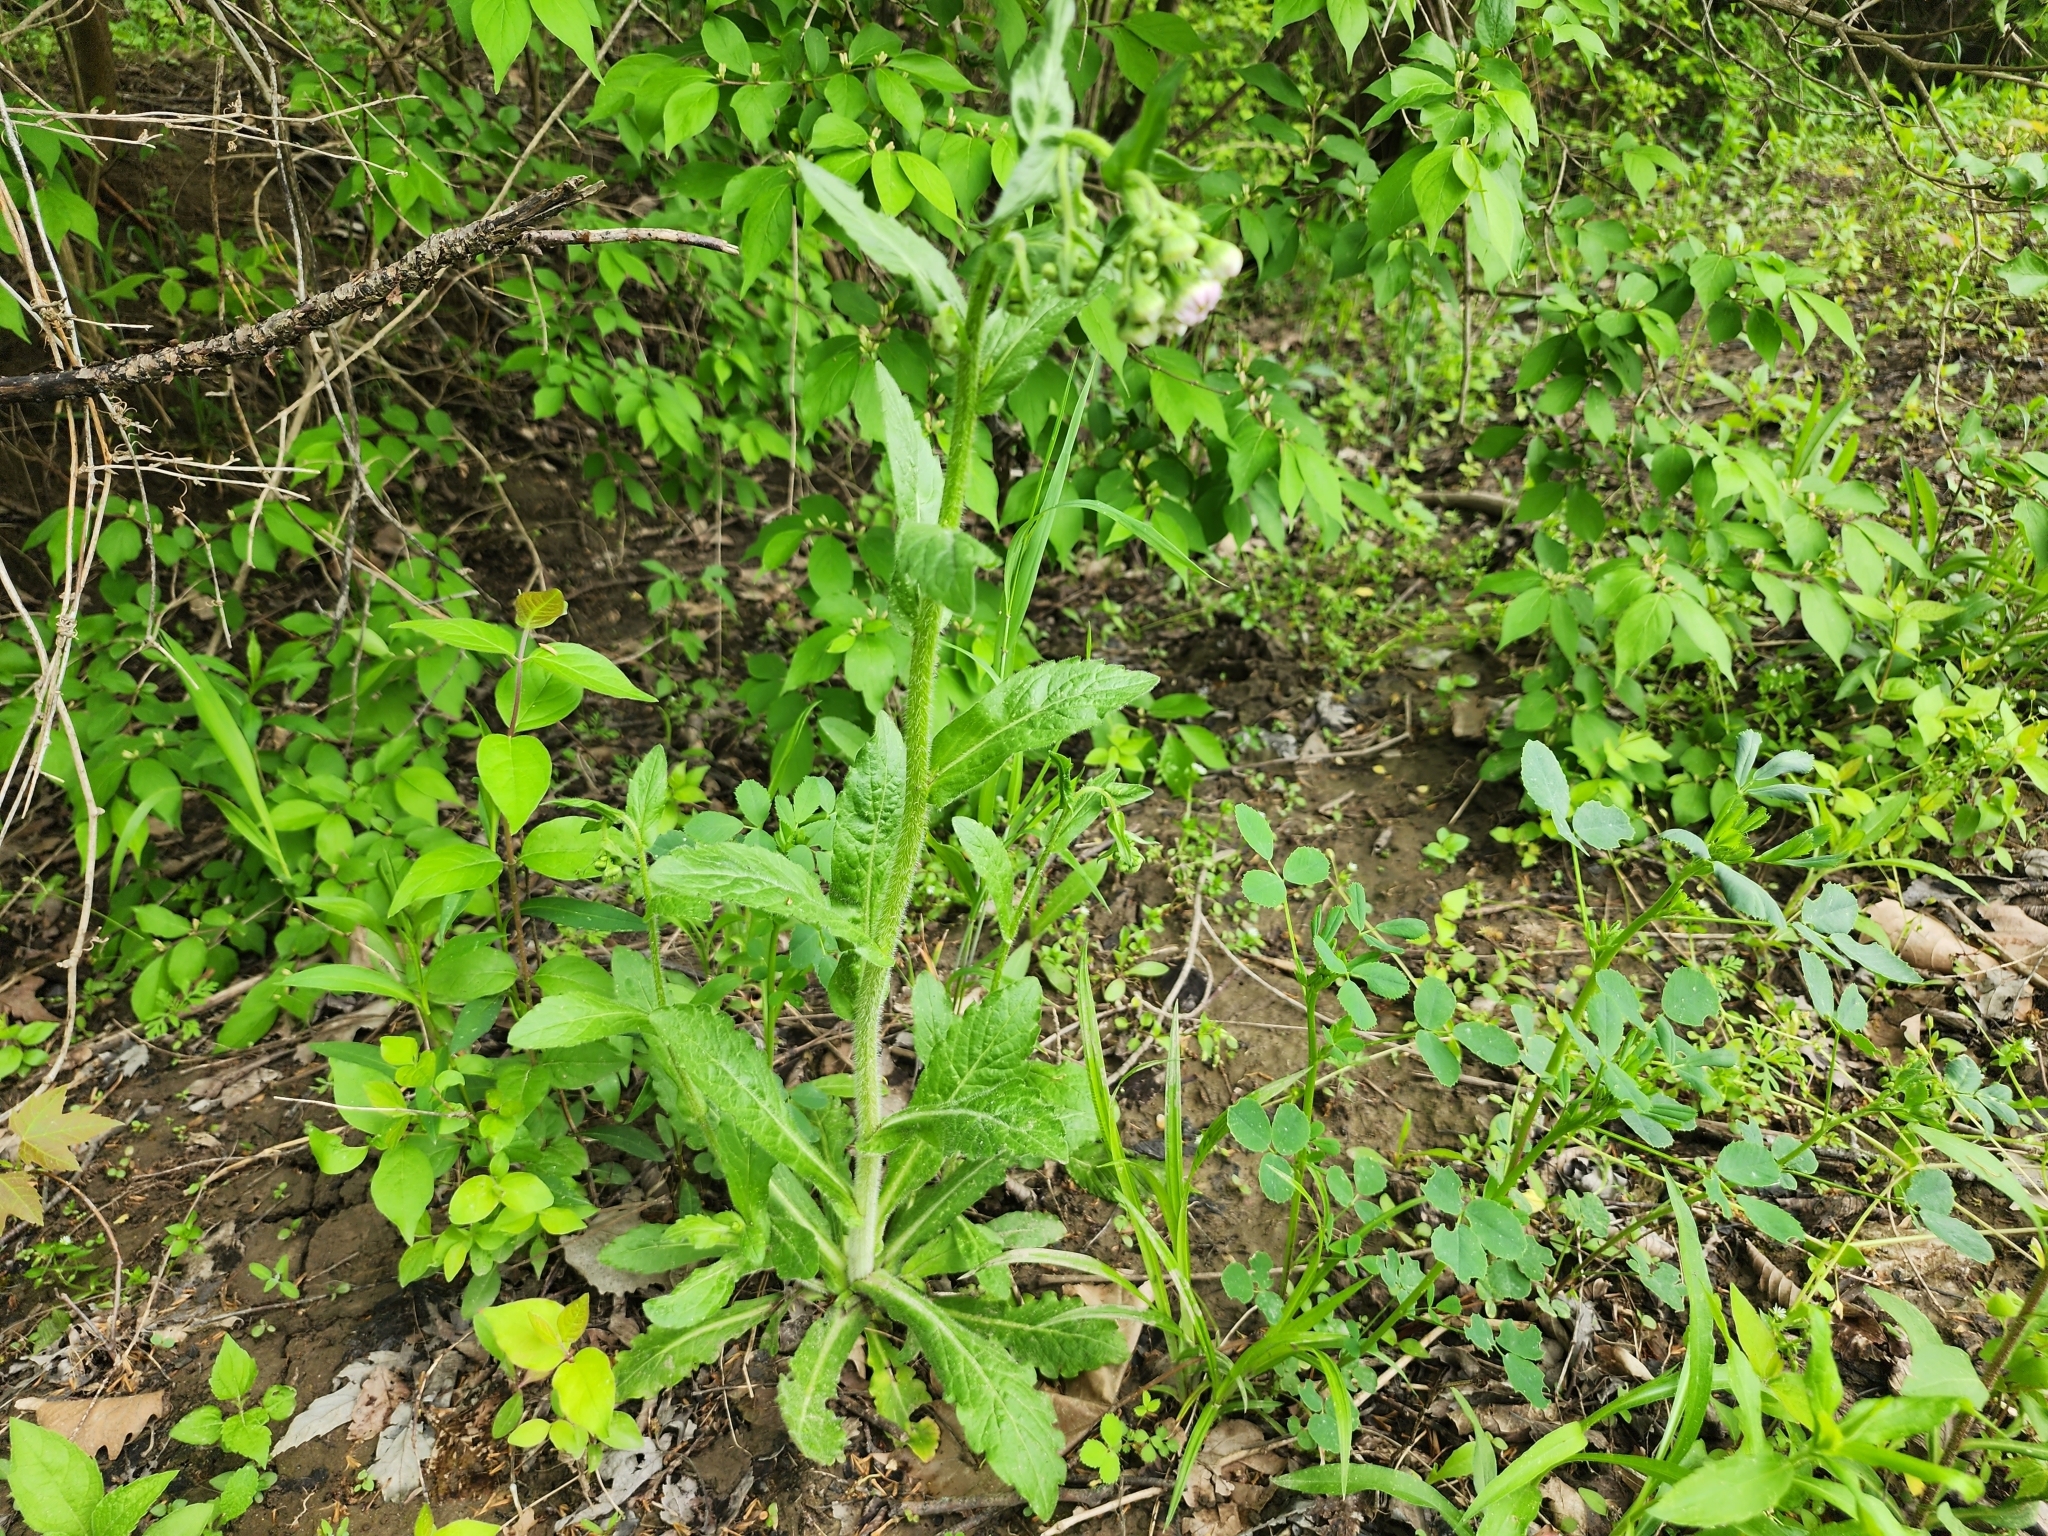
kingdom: Plantae
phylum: Tracheophyta
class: Magnoliopsida
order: Asterales
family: Asteraceae
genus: Erigeron
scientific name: Erigeron philadelphicus
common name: Robin's-plantain
